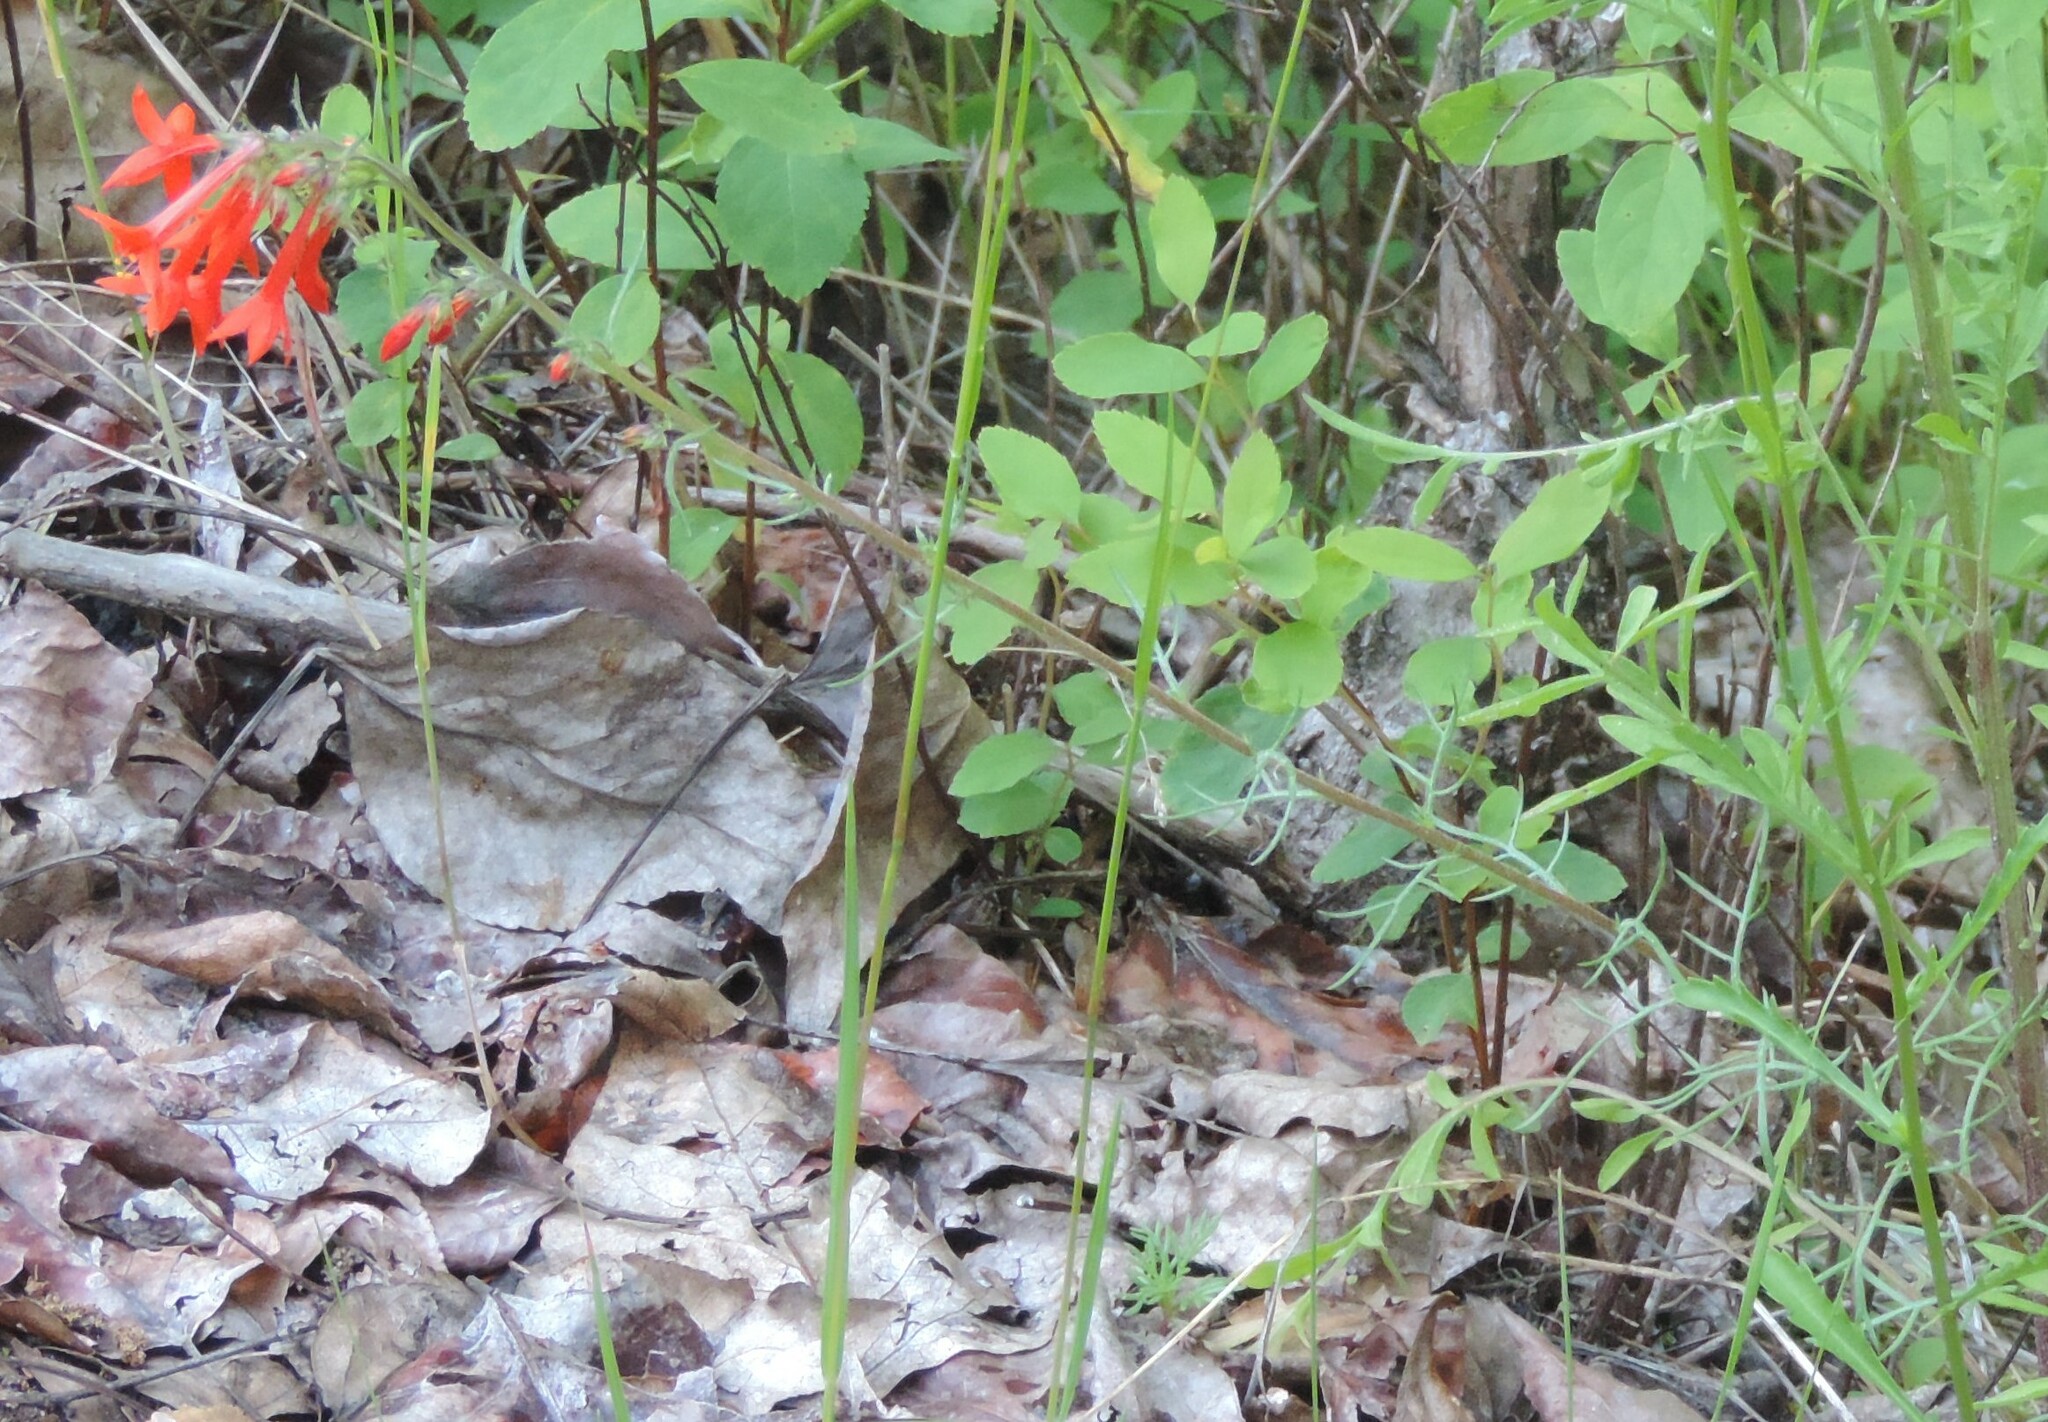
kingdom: Plantae
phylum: Tracheophyta
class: Magnoliopsida
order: Ericales
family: Polemoniaceae
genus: Ipomopsis
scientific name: Ipomopsis aggregata
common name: Scarlet gilia
